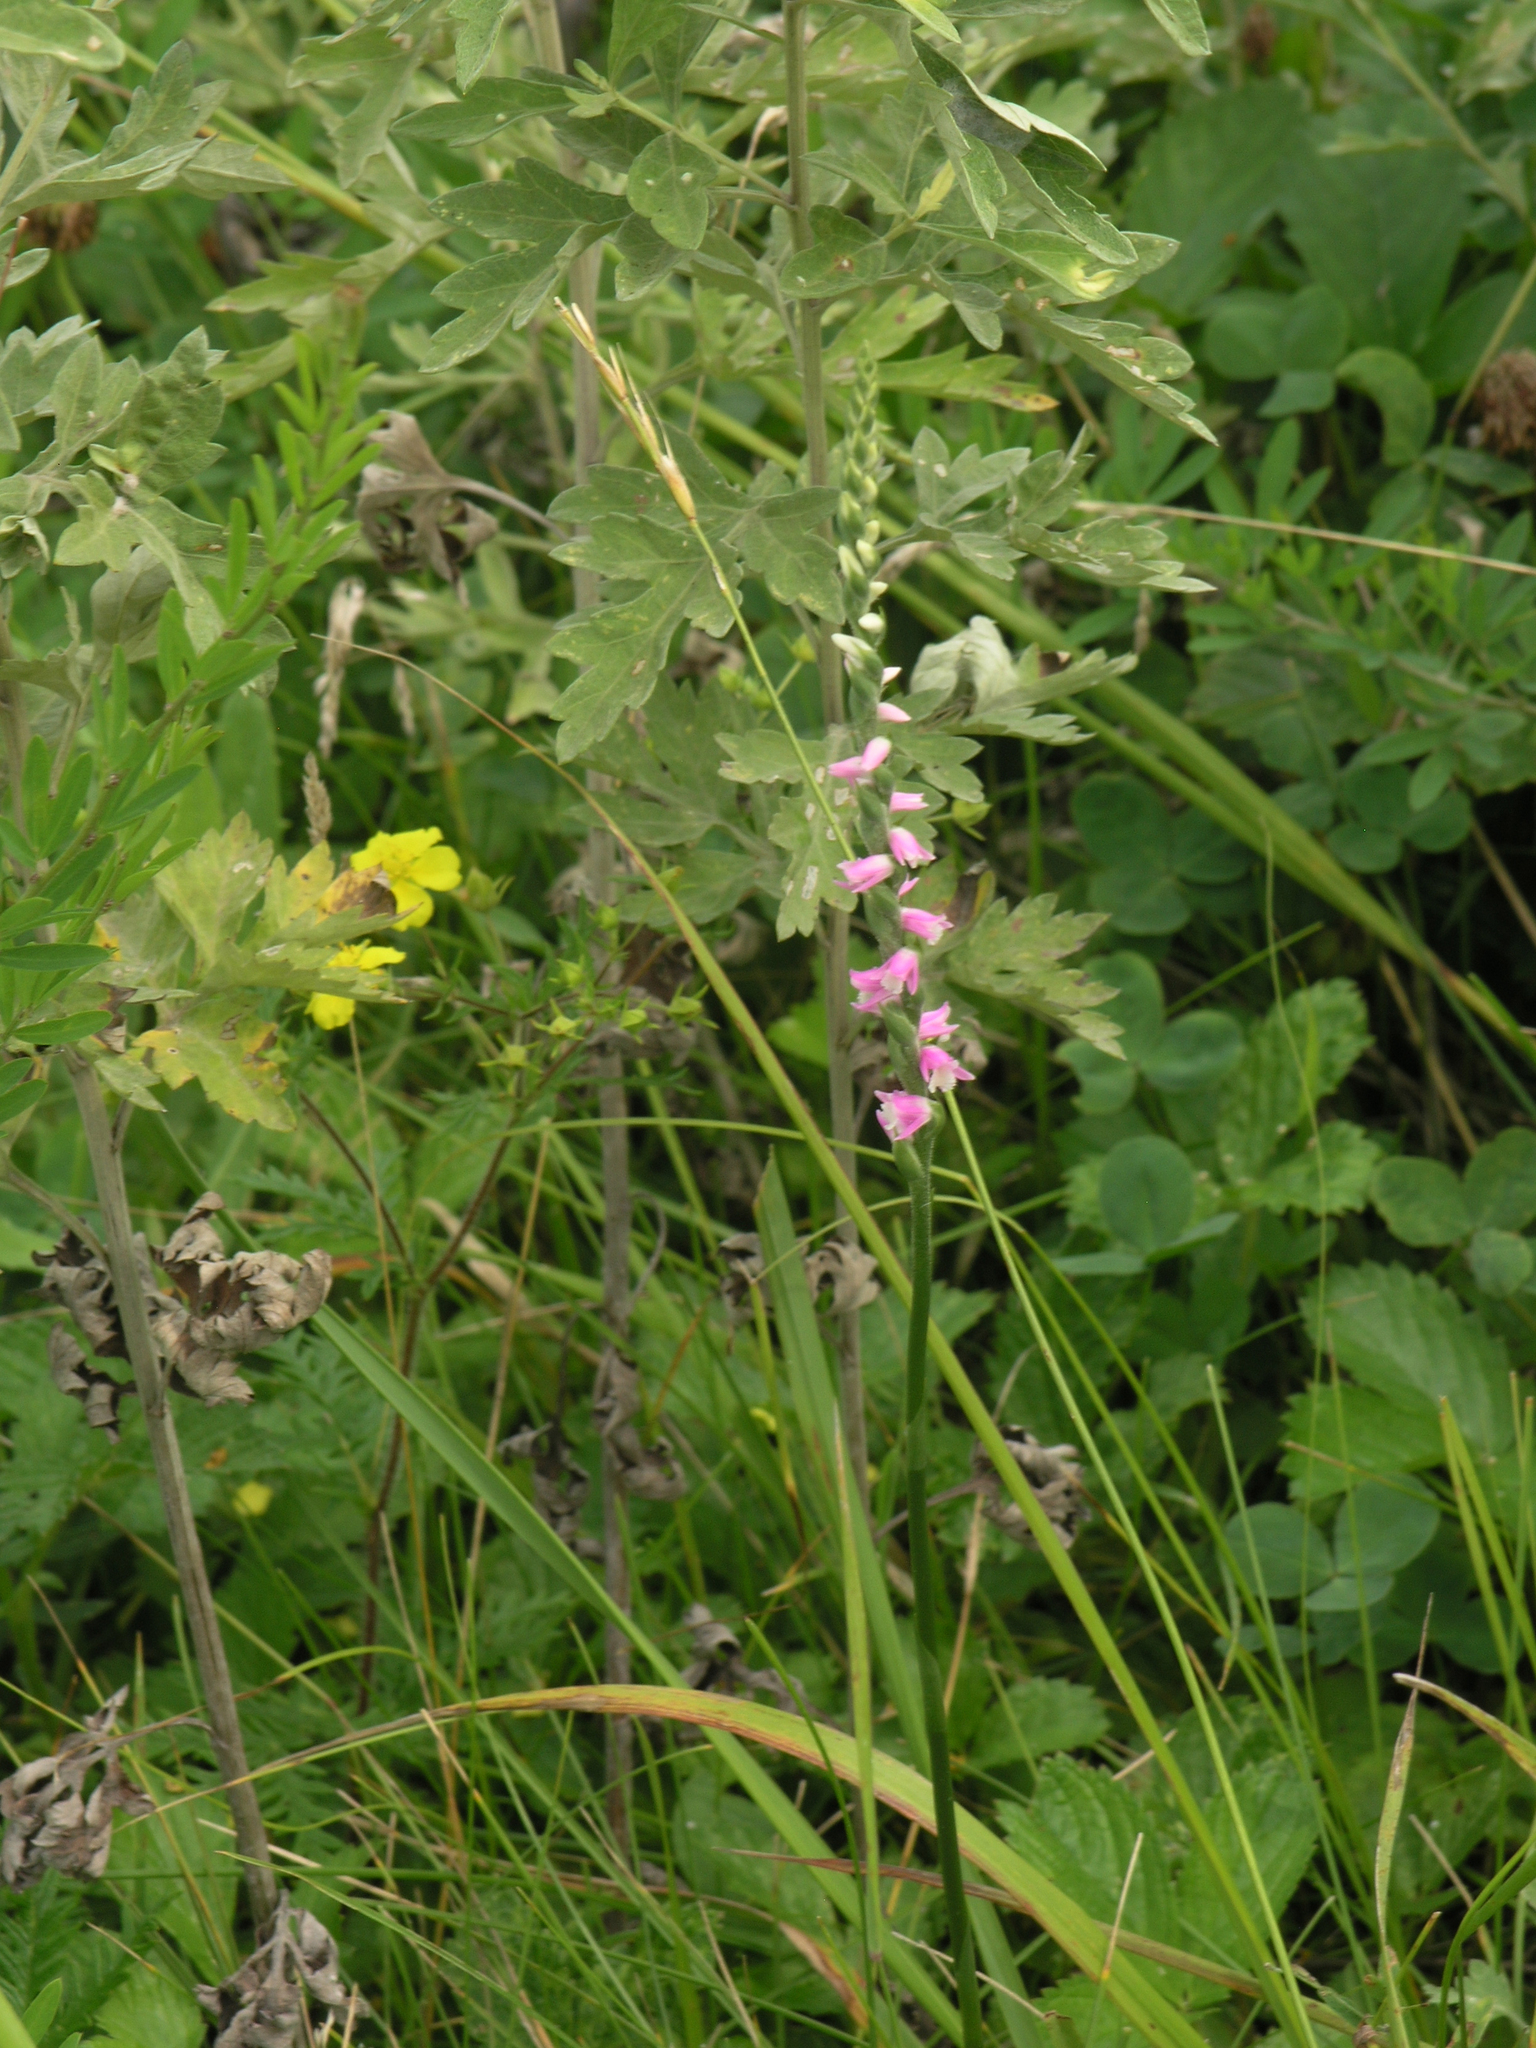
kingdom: Plantae
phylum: Tracheophyta
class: Liliopsida
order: Asparagales
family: Orchidaceae
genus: Spiranthes
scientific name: Spiranthes australis
